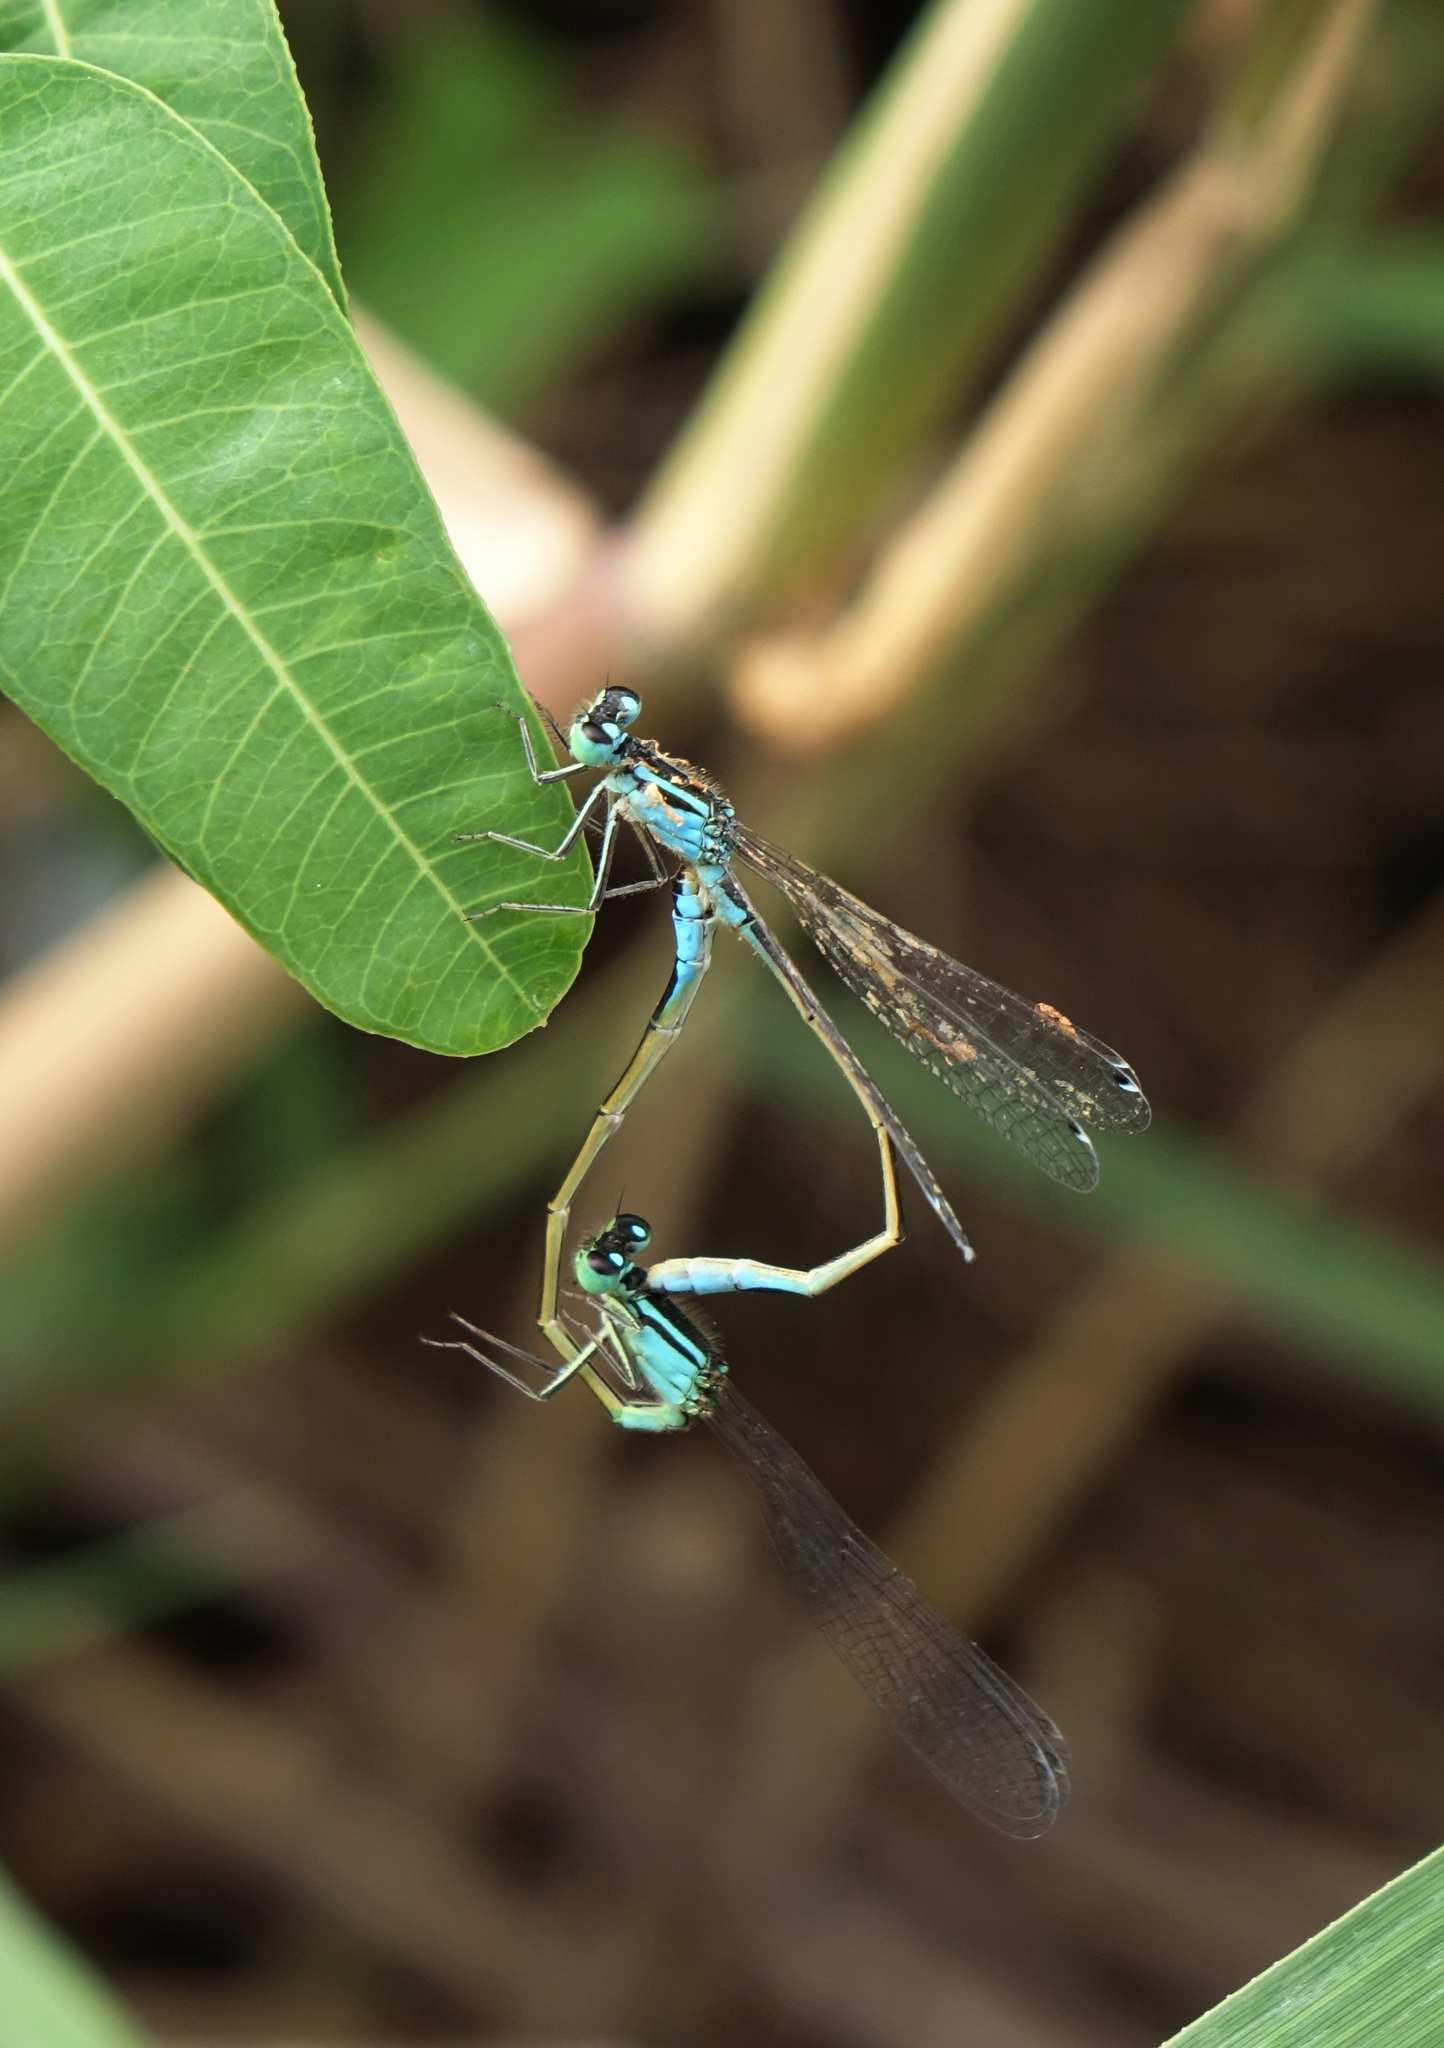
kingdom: Animalia
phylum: Arthropoda
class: Insecta
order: Odonata
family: Coenagrionidae
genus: Ischnura
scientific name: Ischnura elegans
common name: Blue-tailed damselfly
